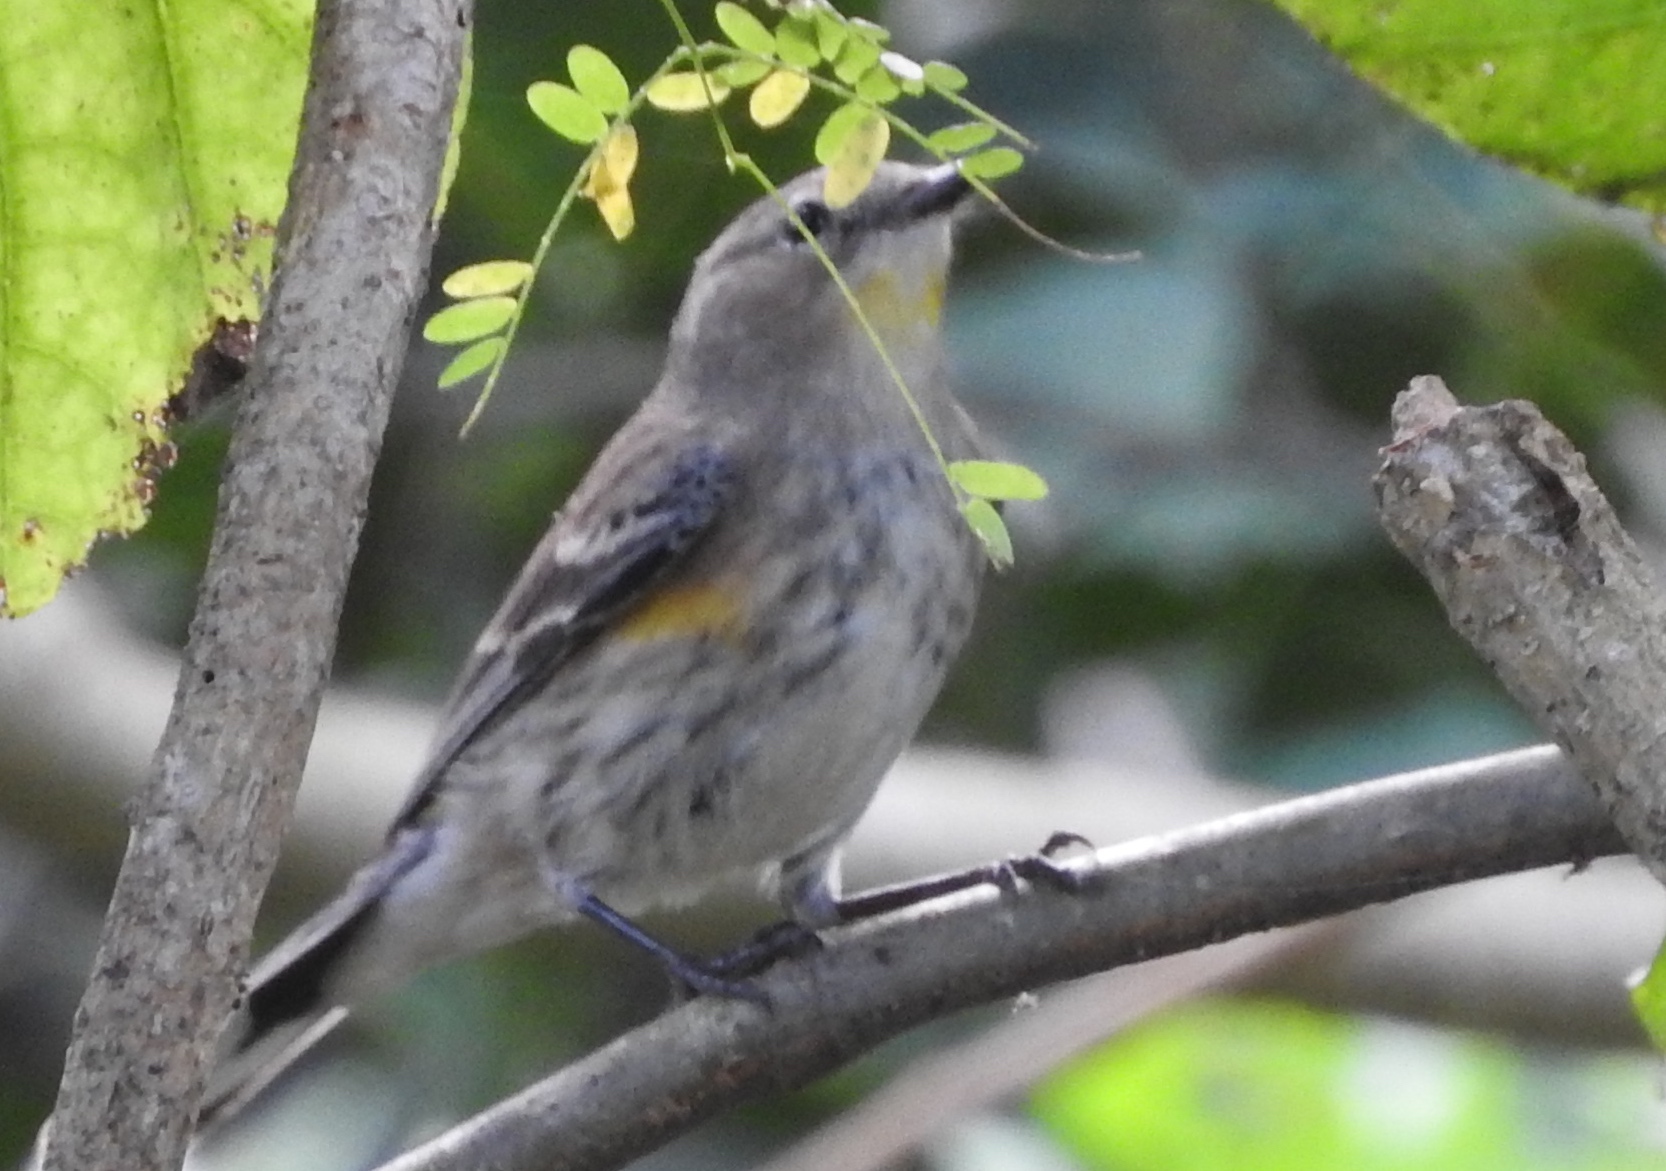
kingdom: Animalia
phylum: Chordata
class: Aves
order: Passeriformes
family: Parulidae
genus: Setophaga
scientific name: Setophaga auduboni
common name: Audubon's warbler
